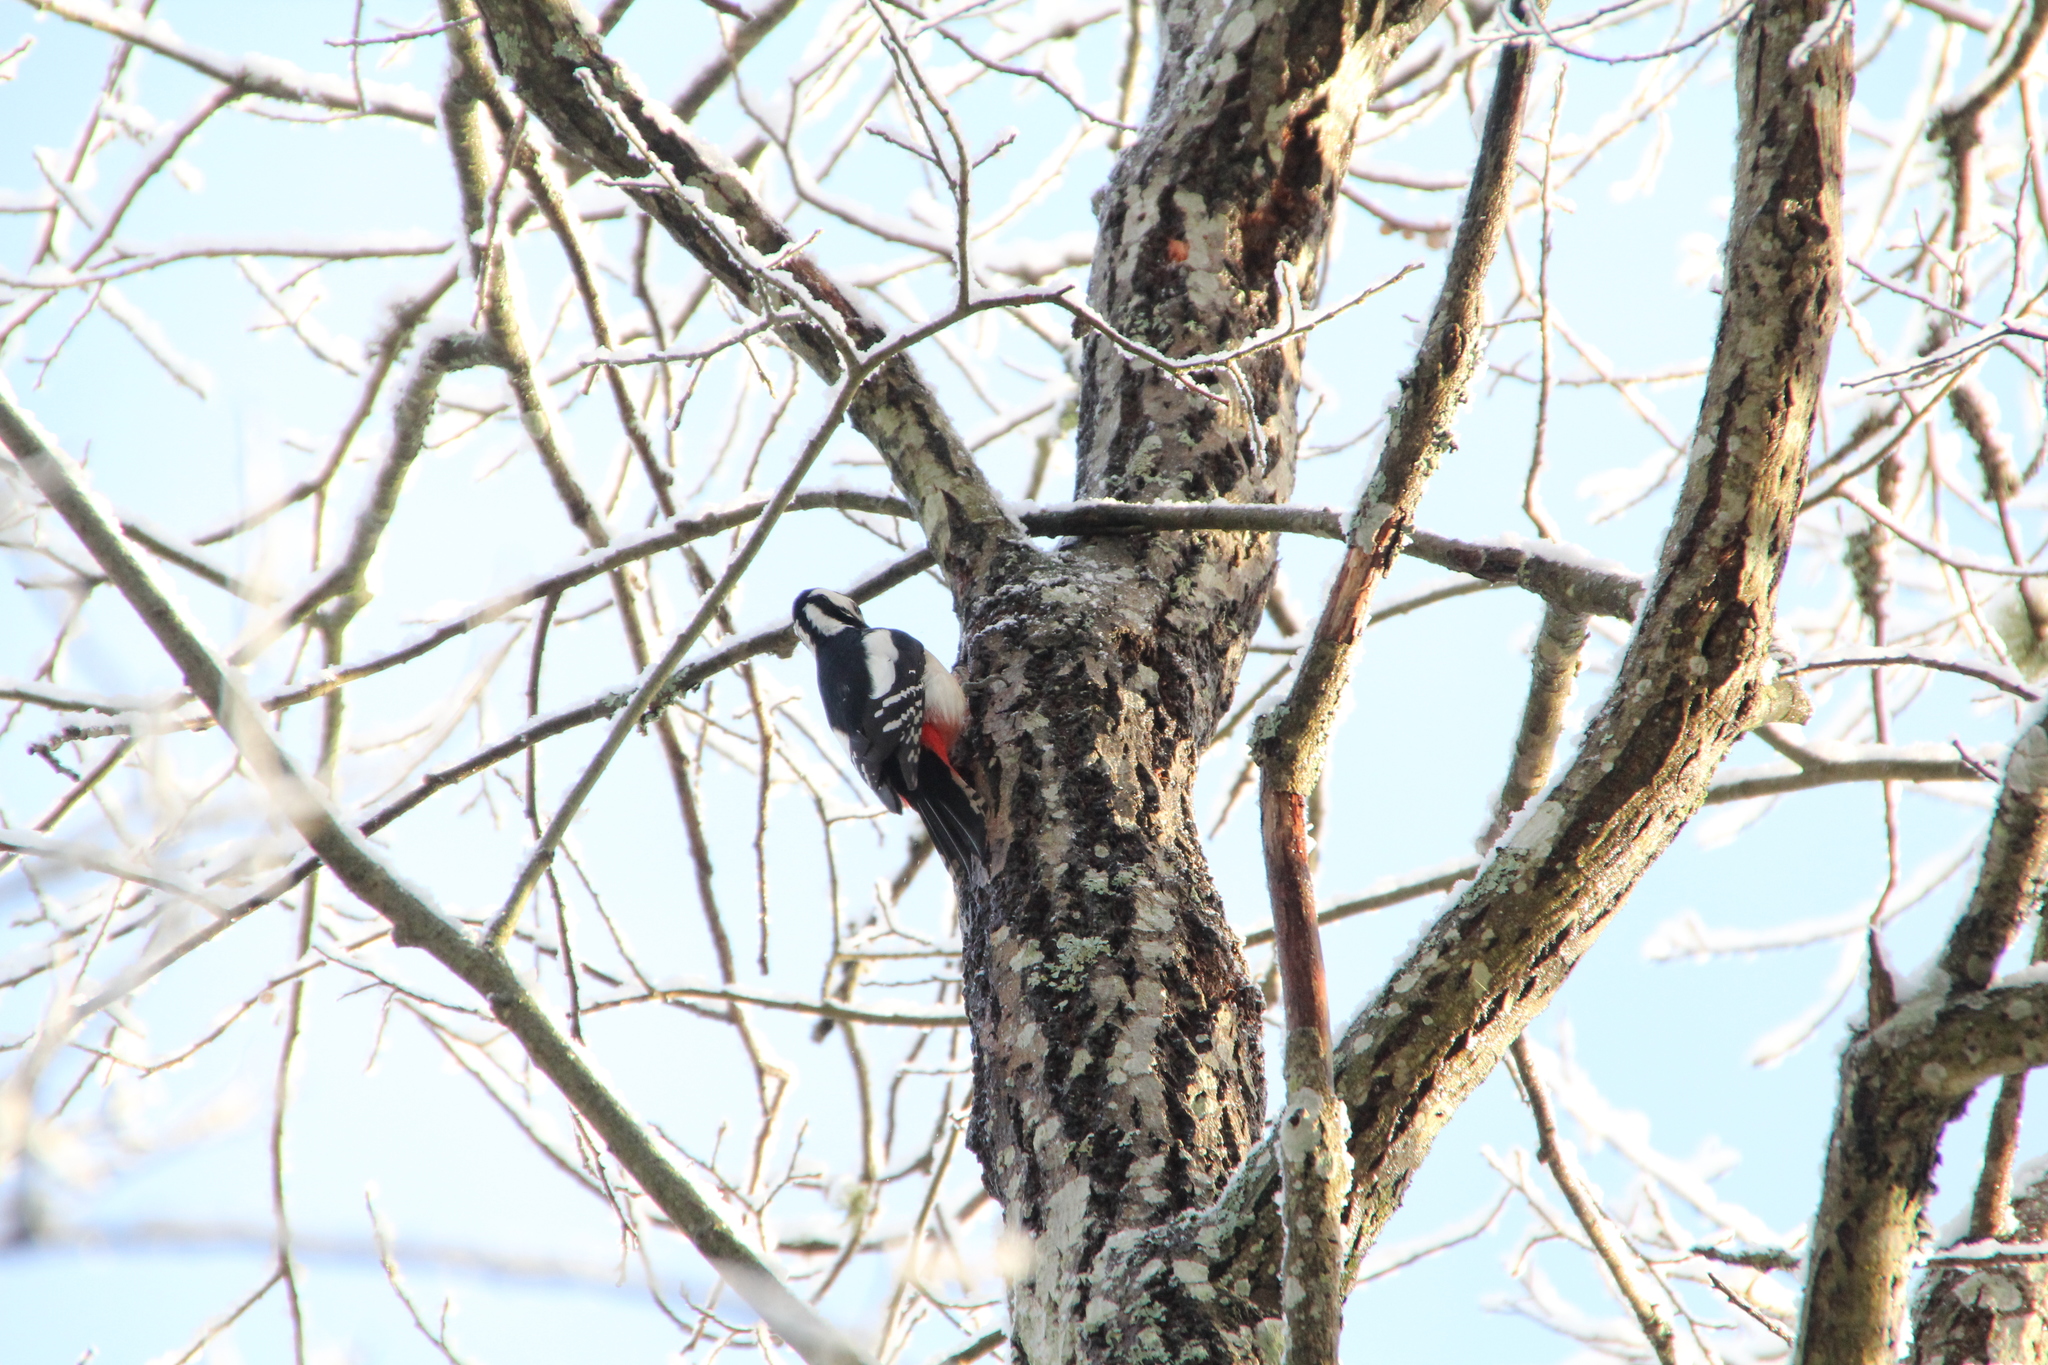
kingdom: Animalia
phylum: Chordata
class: Aves
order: Piciformes
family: Picidae
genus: Dendrocopos
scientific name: Dendrocopos major
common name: Great spotted woodpecker
